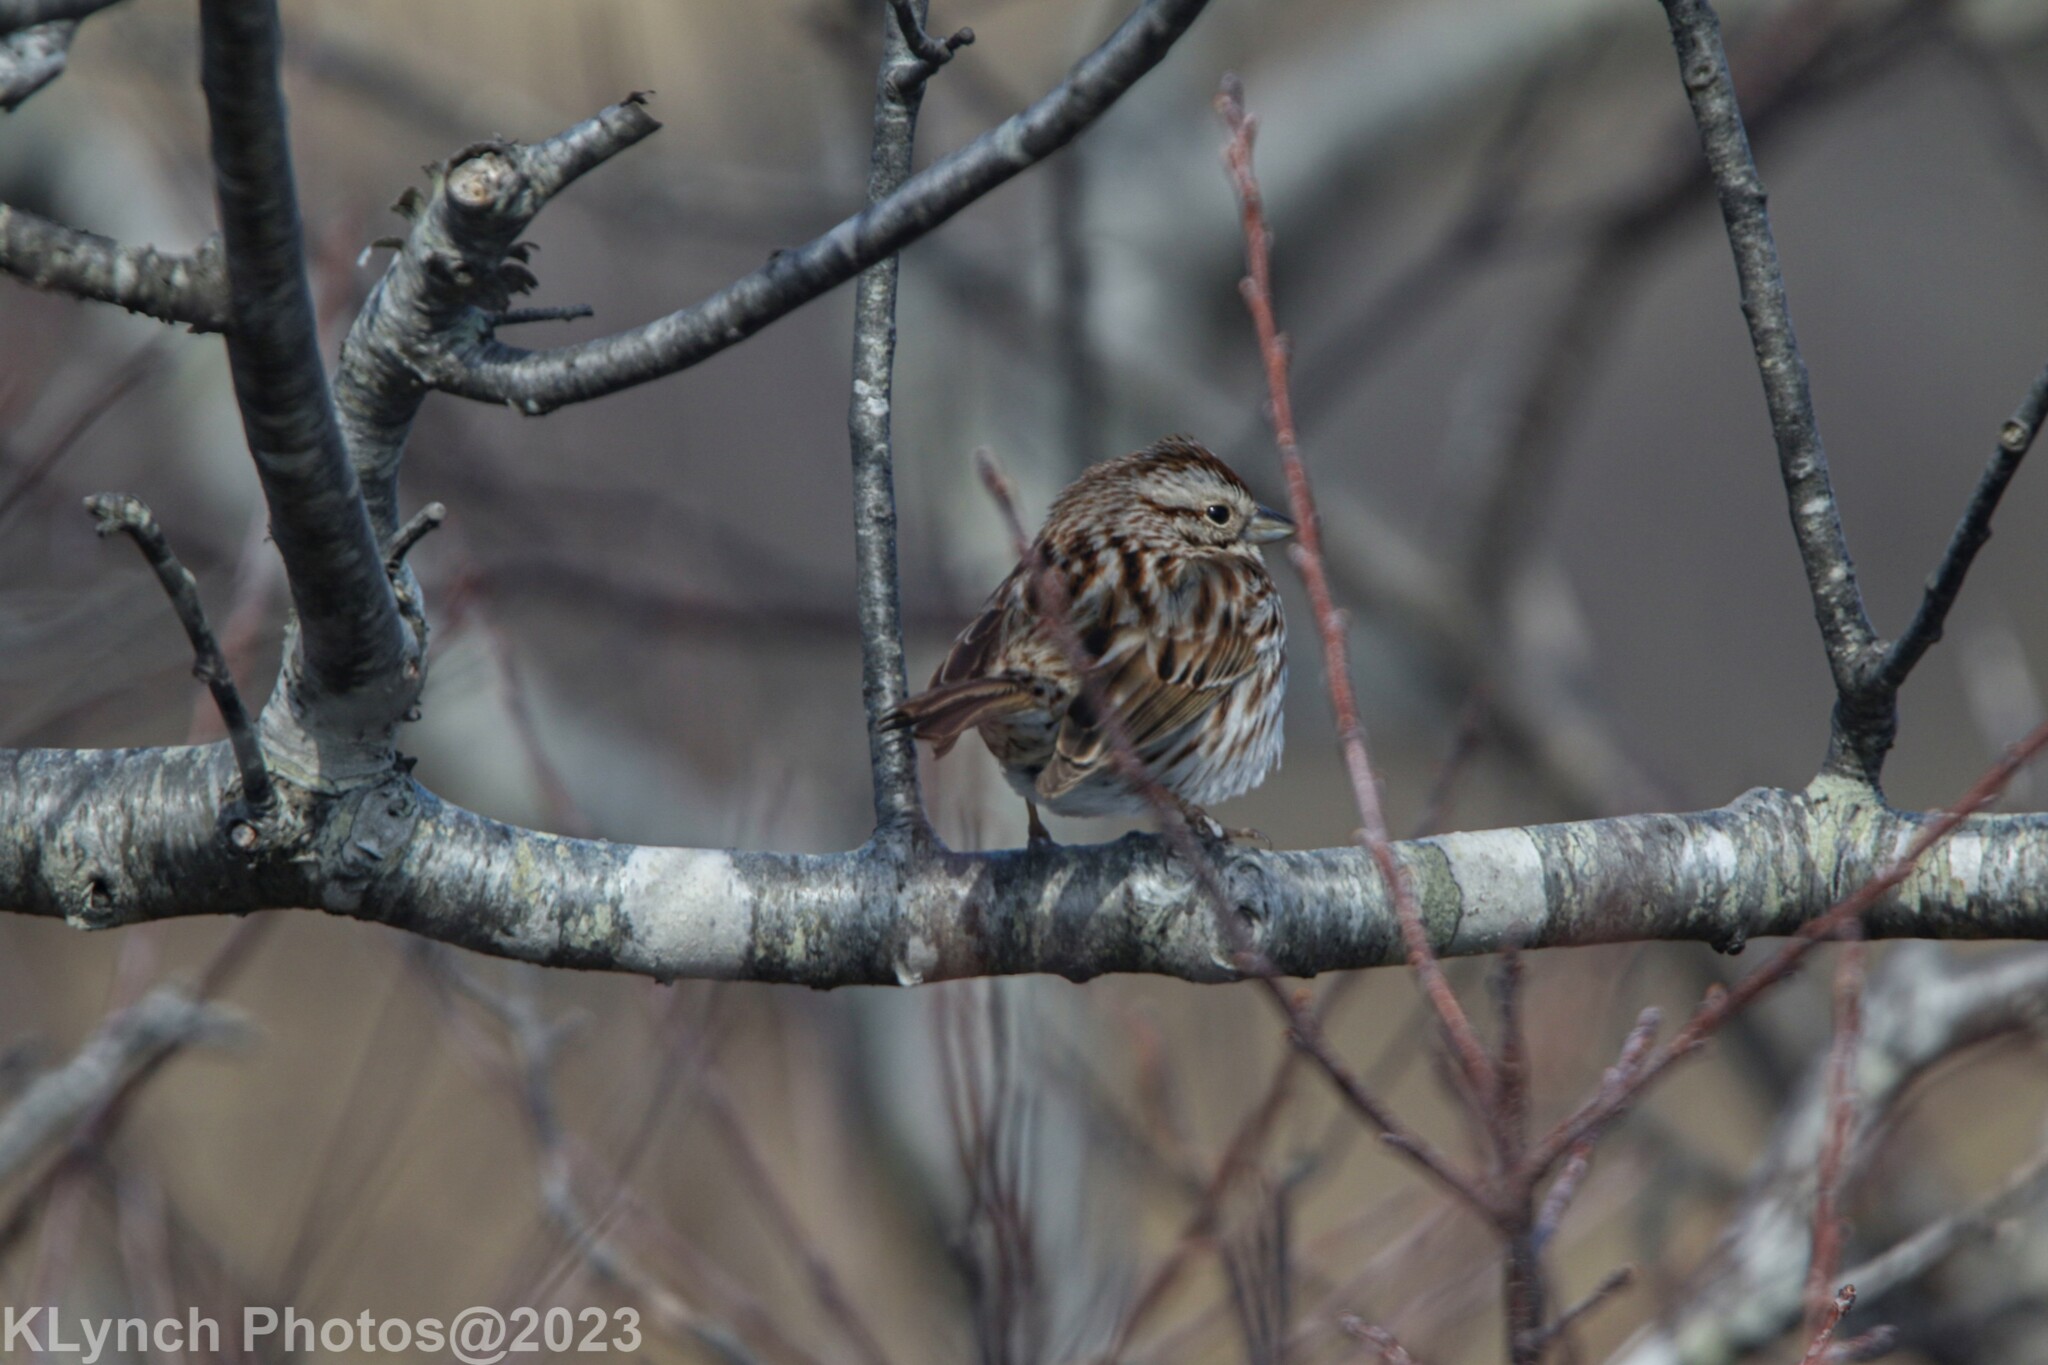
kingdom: Animalia
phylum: Chordata
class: Aves
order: Passeriformes
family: Passerellidae
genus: Melospiza
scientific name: Melospiza melodia
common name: Song sparrow
